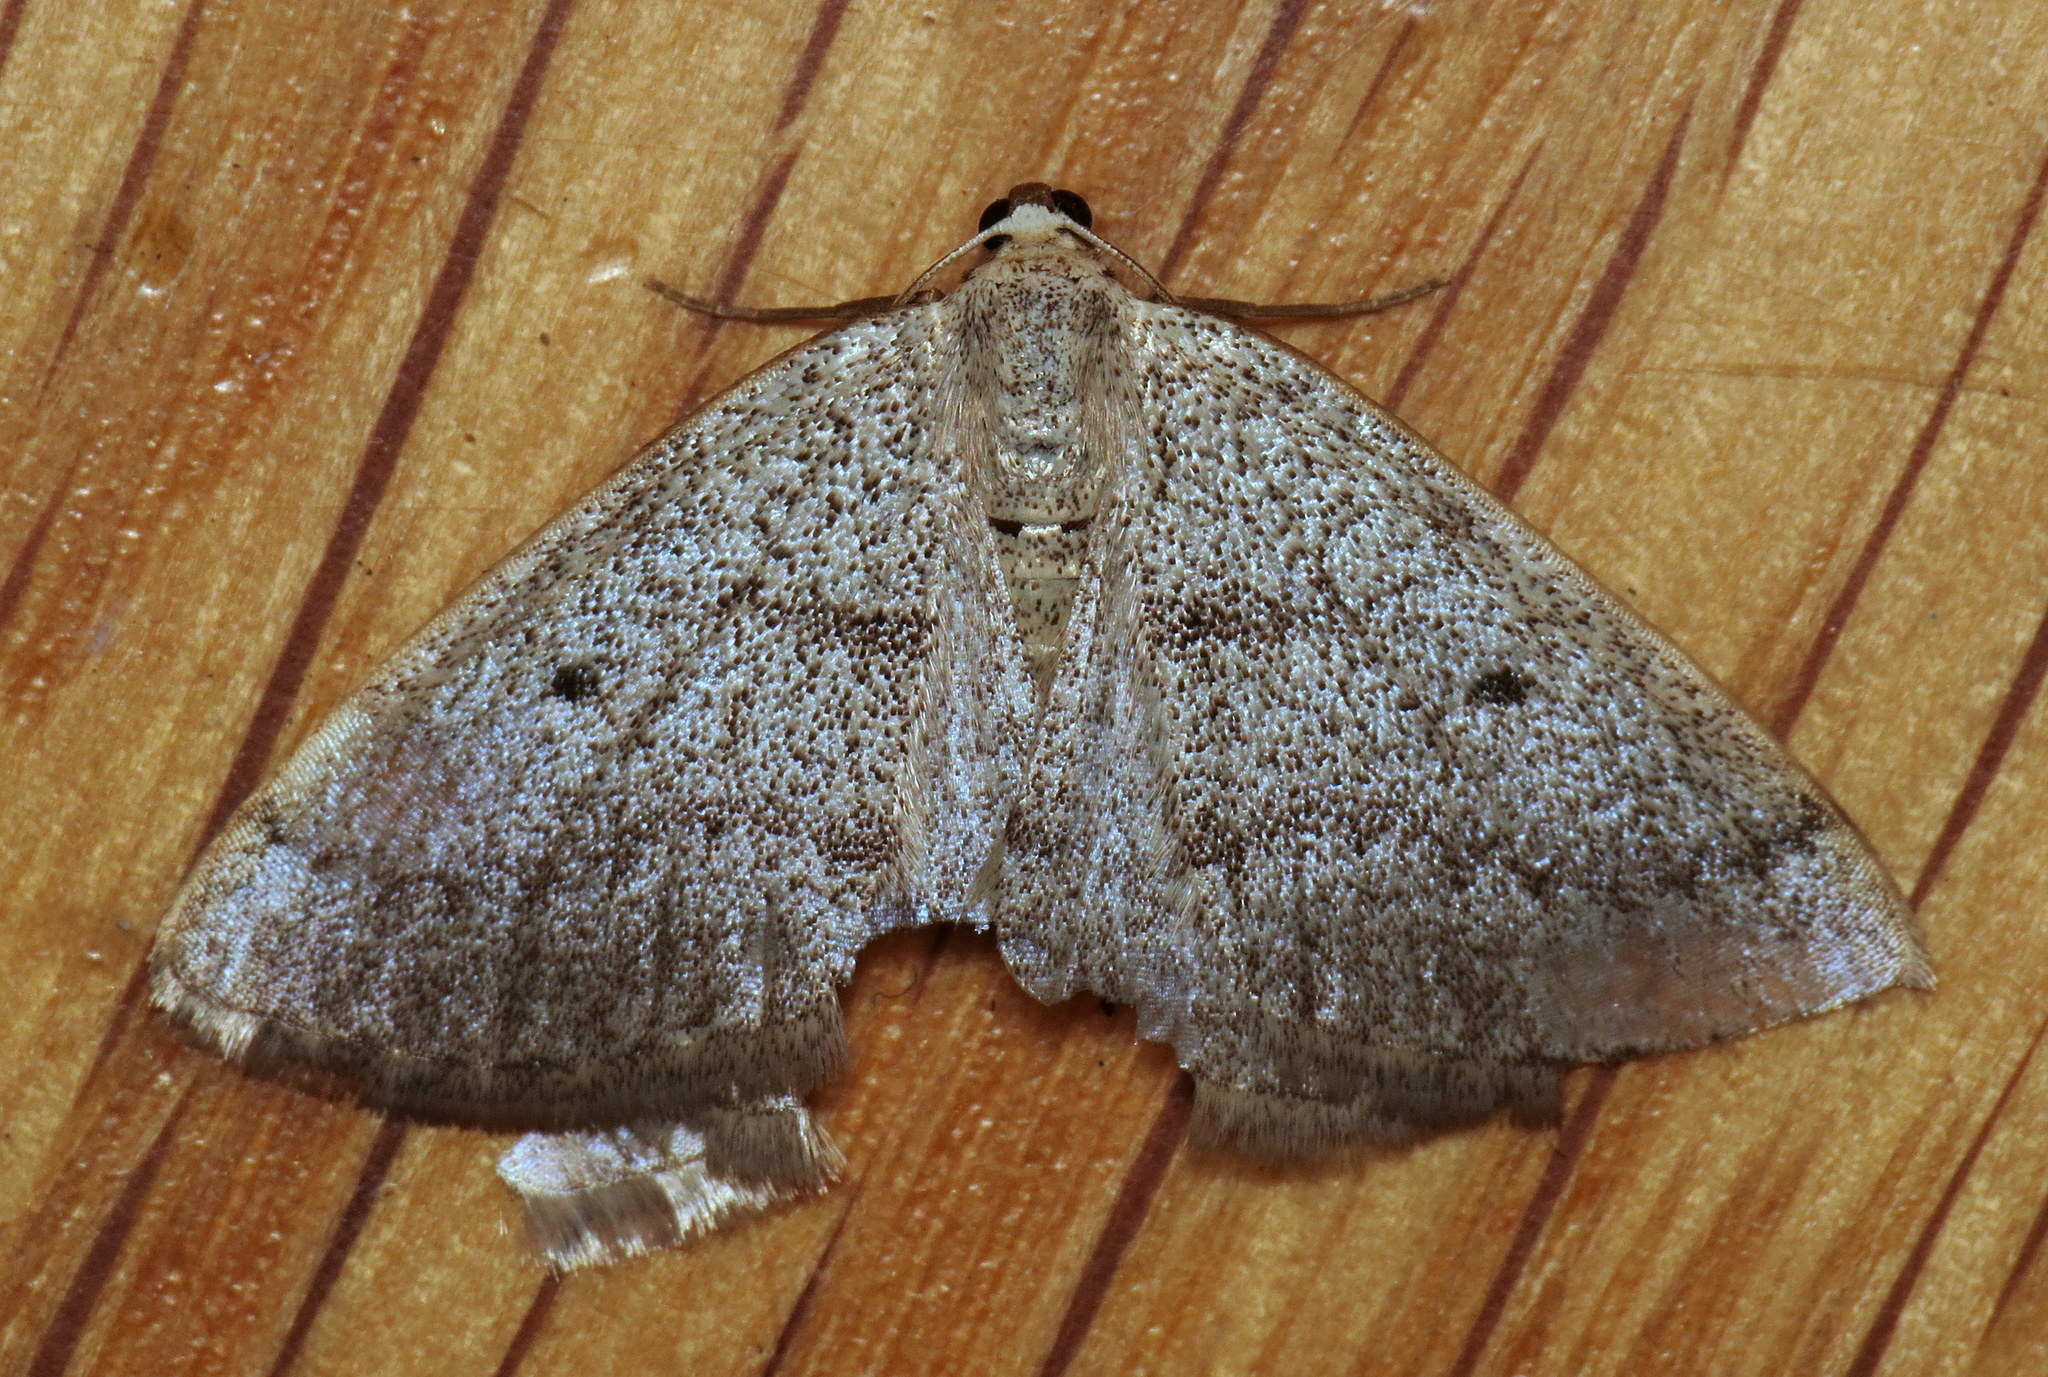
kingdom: Animalia
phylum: Arthropoda
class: Insecta
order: Lepidoptera
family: Geometridae
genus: Lomographa
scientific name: Lomographa glomeraria
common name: Gray spring moth
